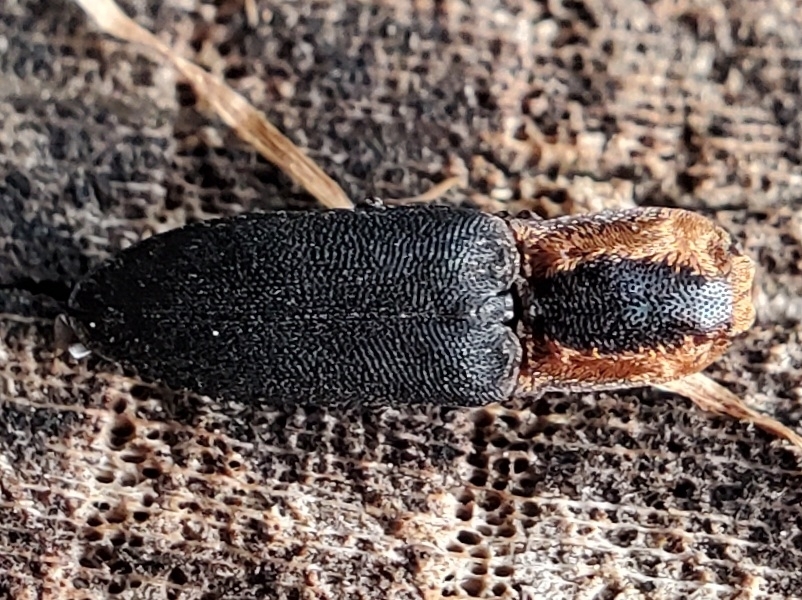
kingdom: Animalia
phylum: Arthropoda
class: Insecta
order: Coleoptera
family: Elateridae
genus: Lacon
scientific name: Lacon discoideus
